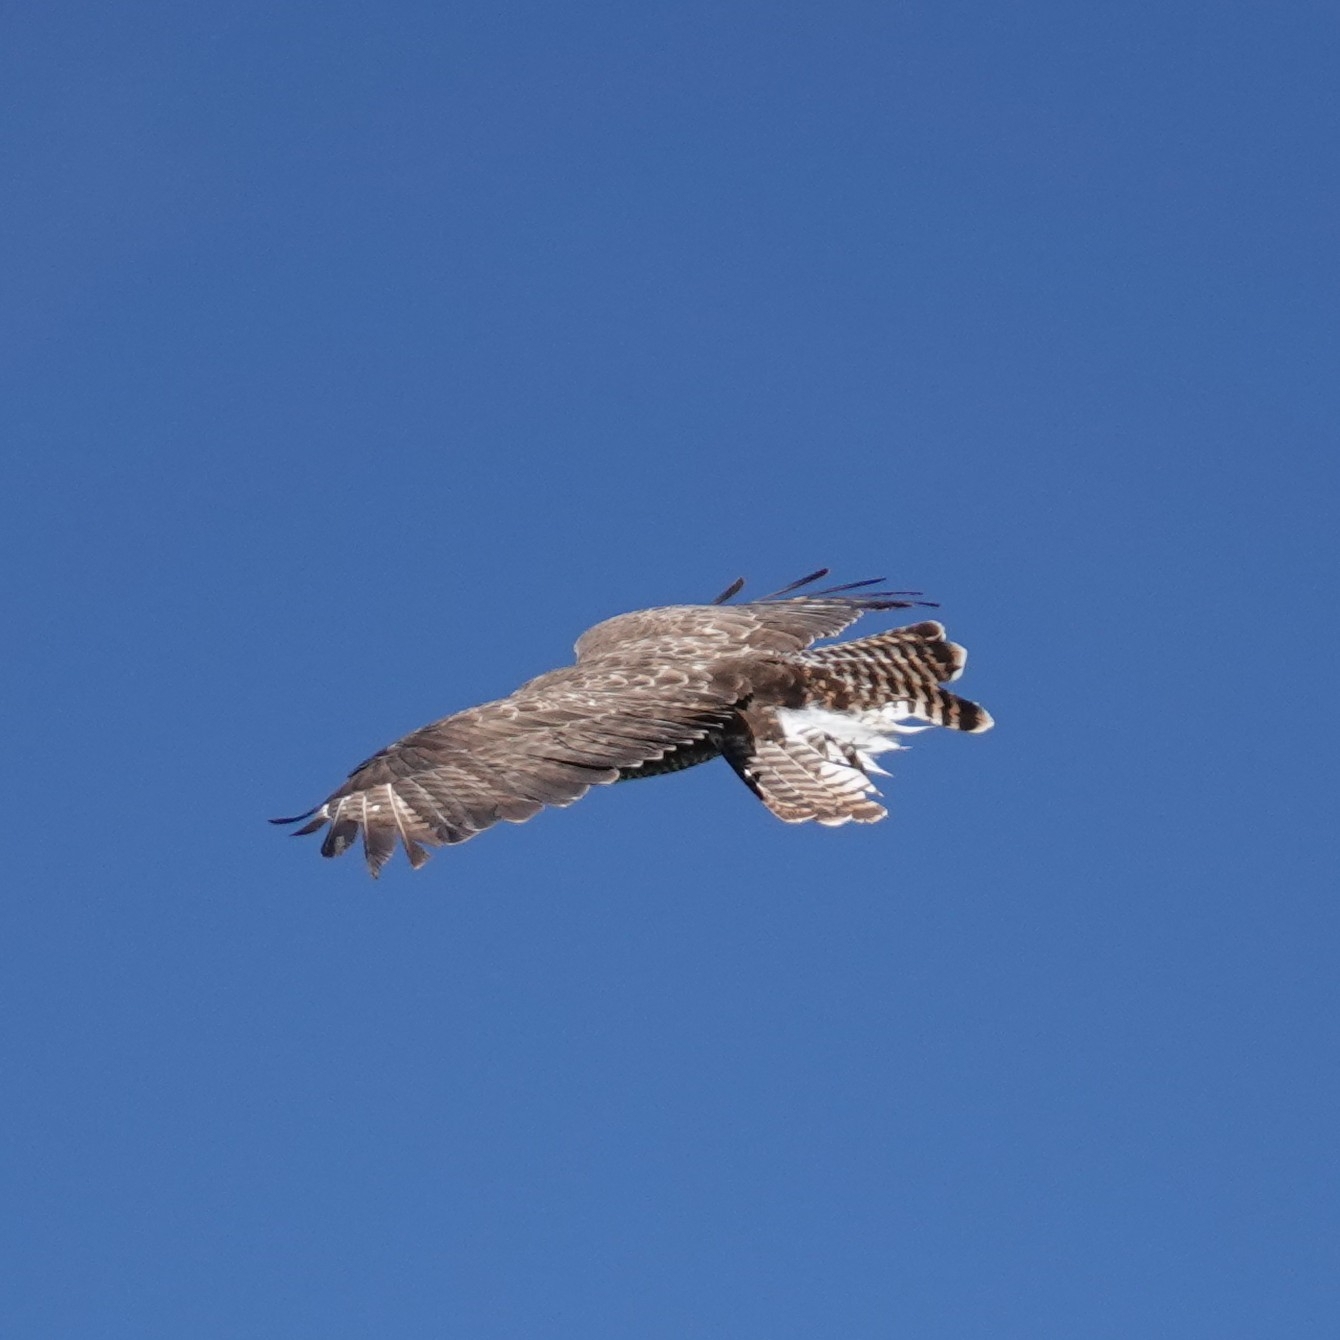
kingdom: Animalia
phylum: Chordata
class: Aves
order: Accipitriformes
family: Accipitridae
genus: Buteo
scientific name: Buteo buteo
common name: Common buzzard
